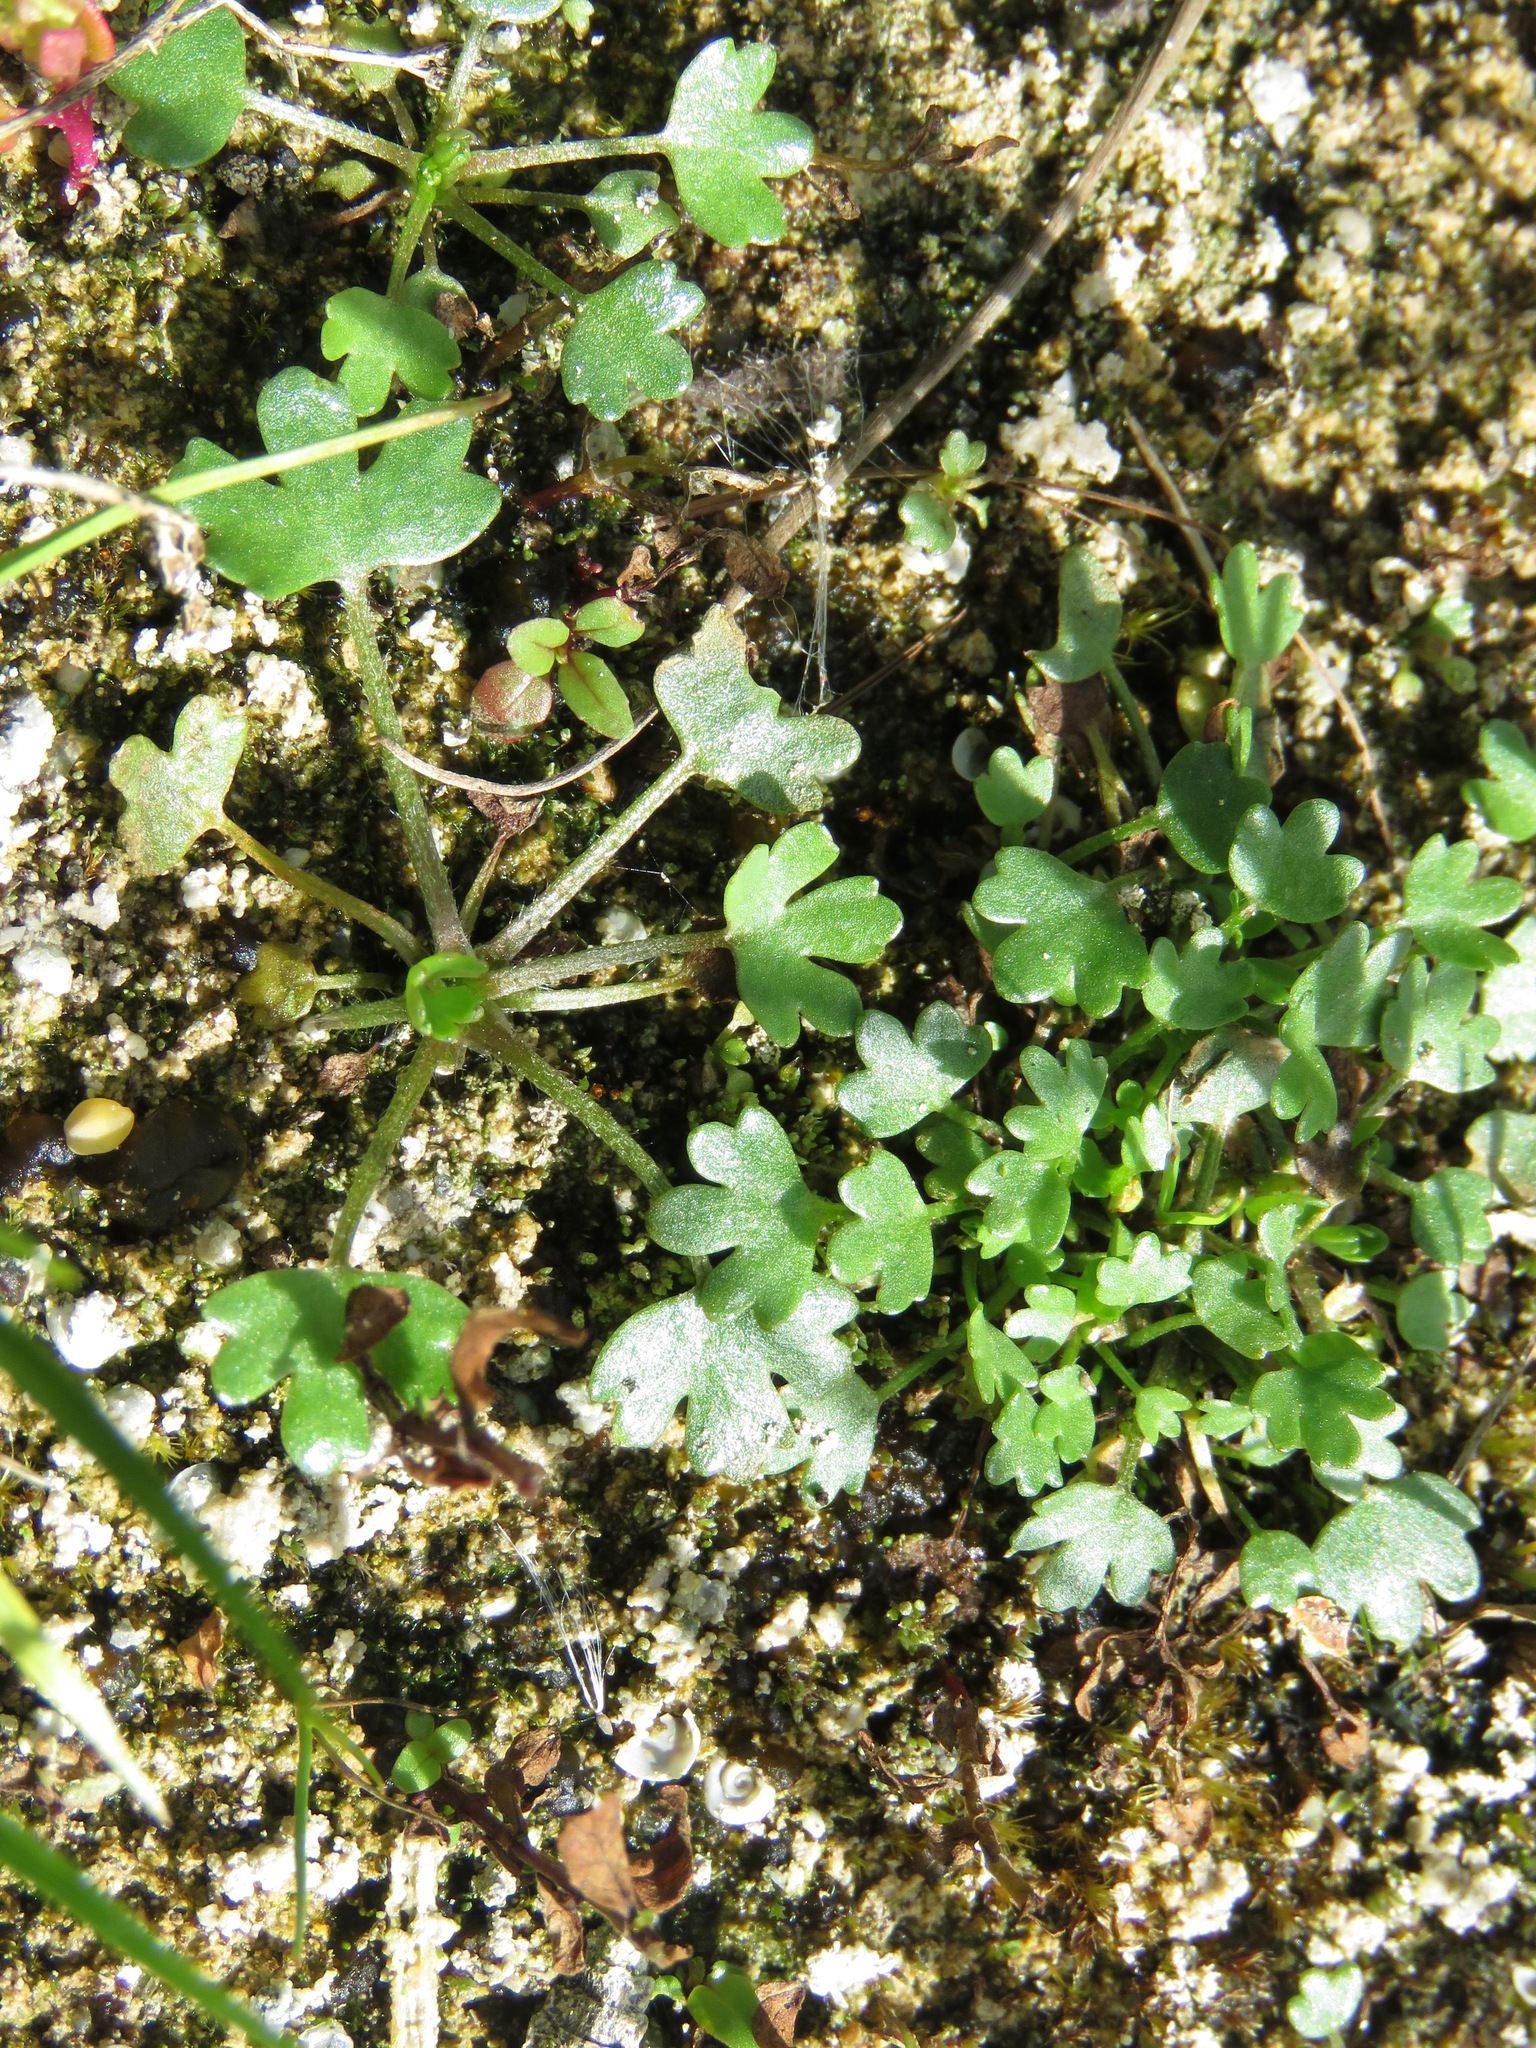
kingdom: Plantae
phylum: Tracheophyta
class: Magnoliopsida
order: Ranunculales
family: Ranunculaceae
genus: Ranunculus
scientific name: Ranunculus sceleratus
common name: Celery-leaved buttercup
